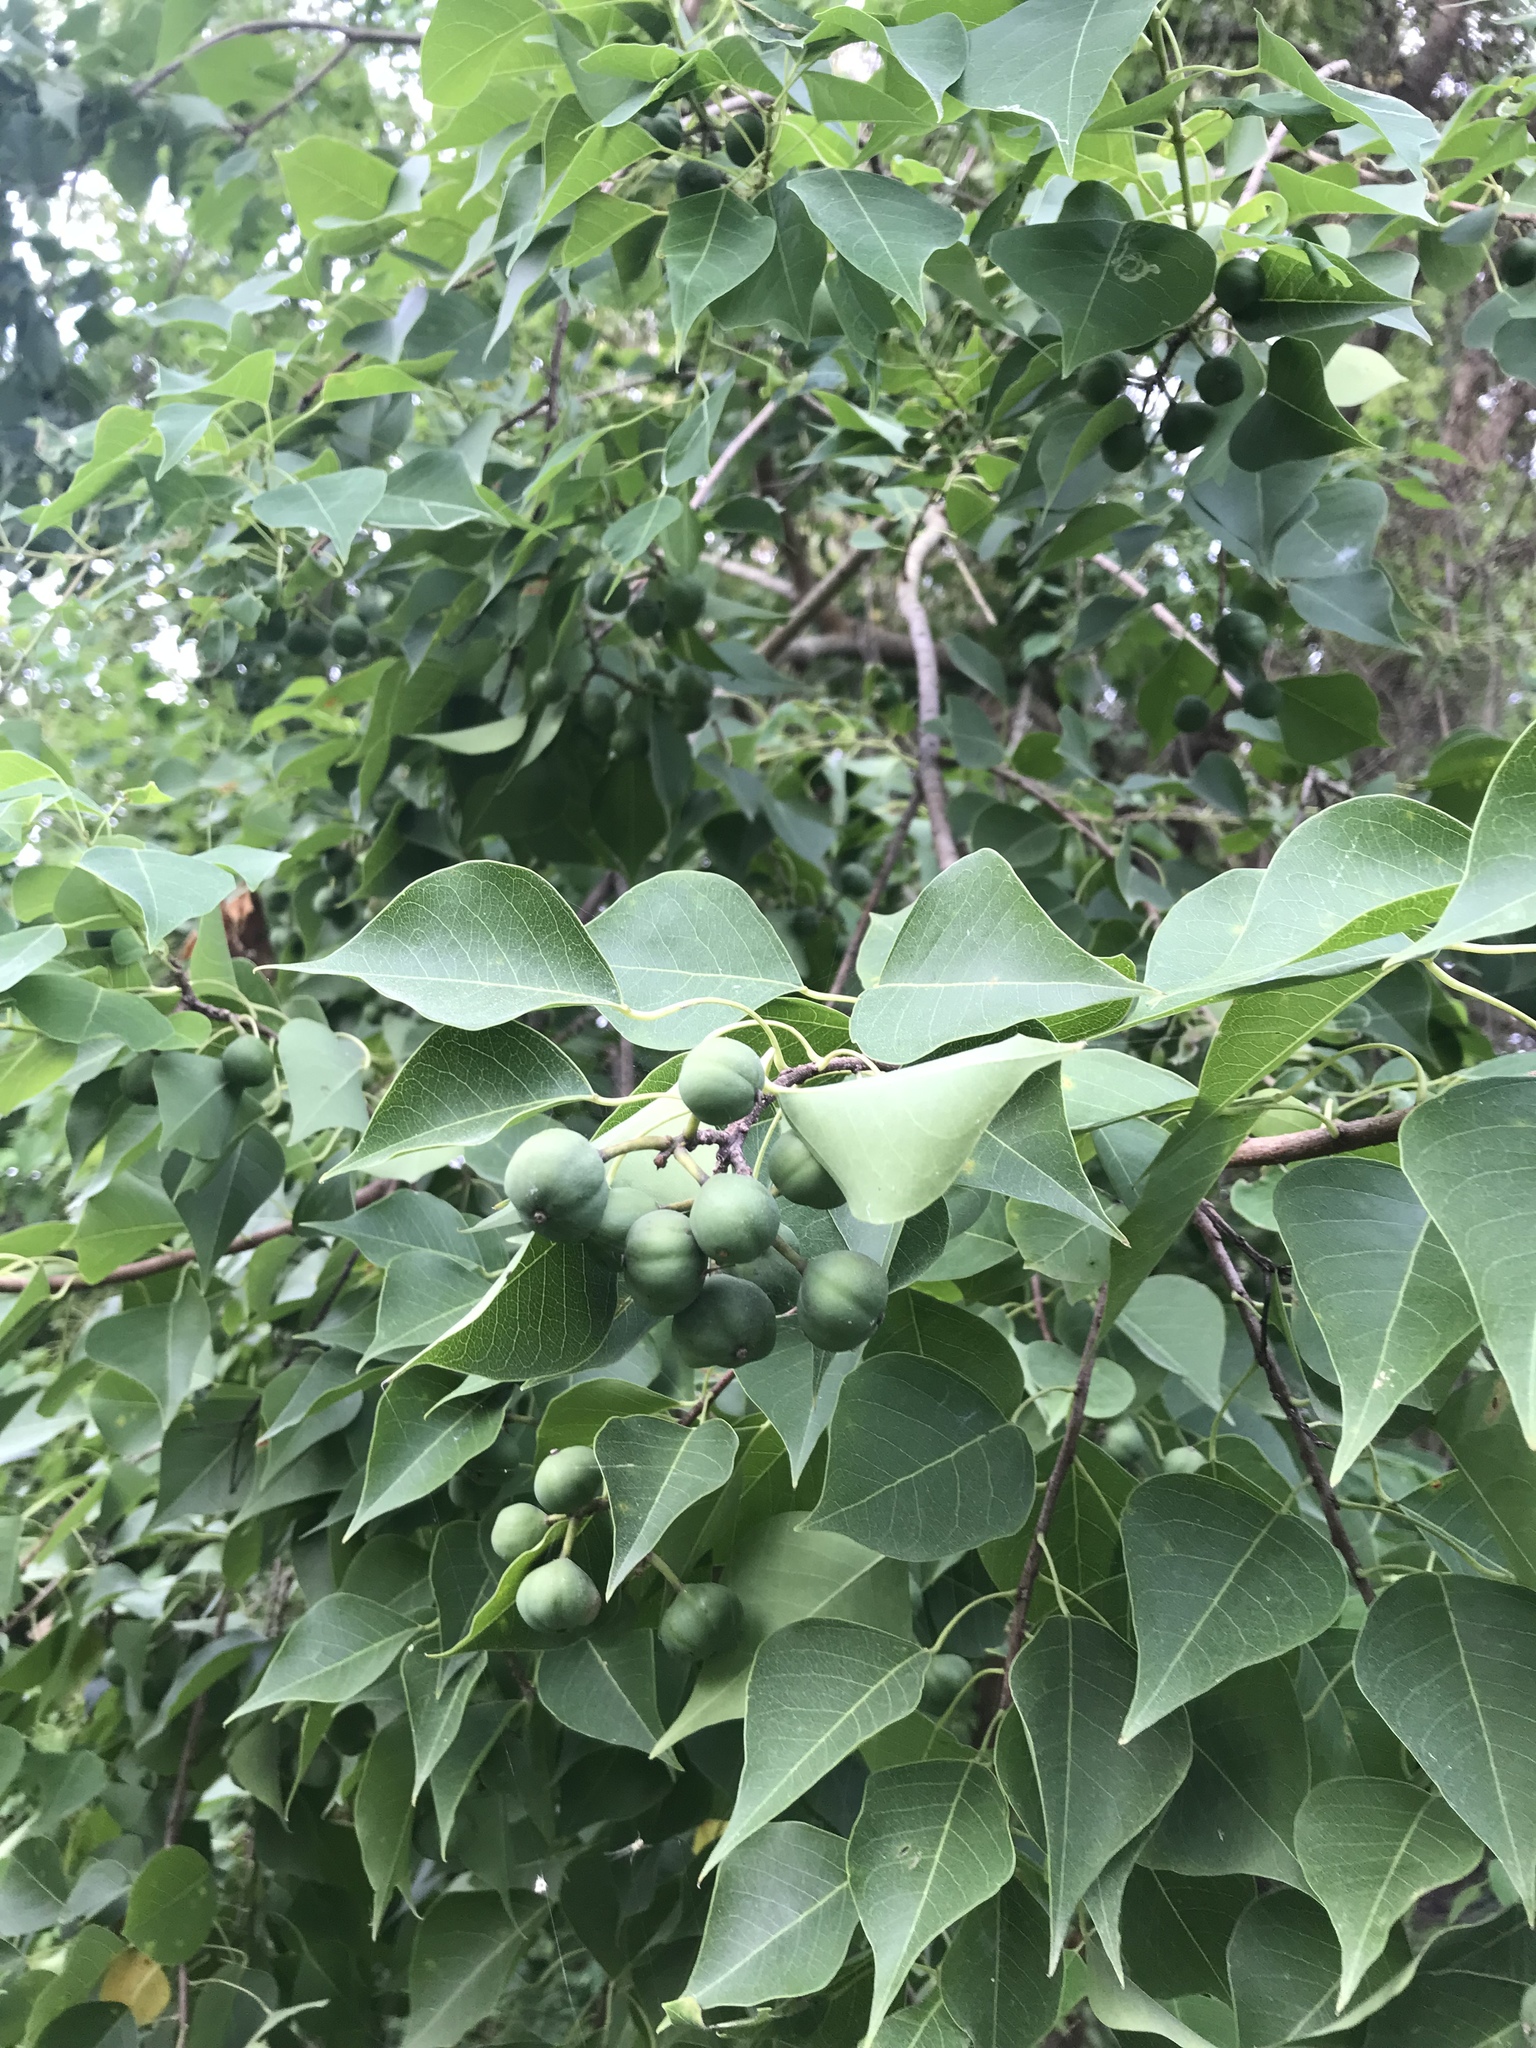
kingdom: Plantae
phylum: Tracheophyta
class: Magnoliopsida
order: Malpighiales
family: Euphorbiaceae
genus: Triadica
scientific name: Triadica sebifera
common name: Chinese tallow
